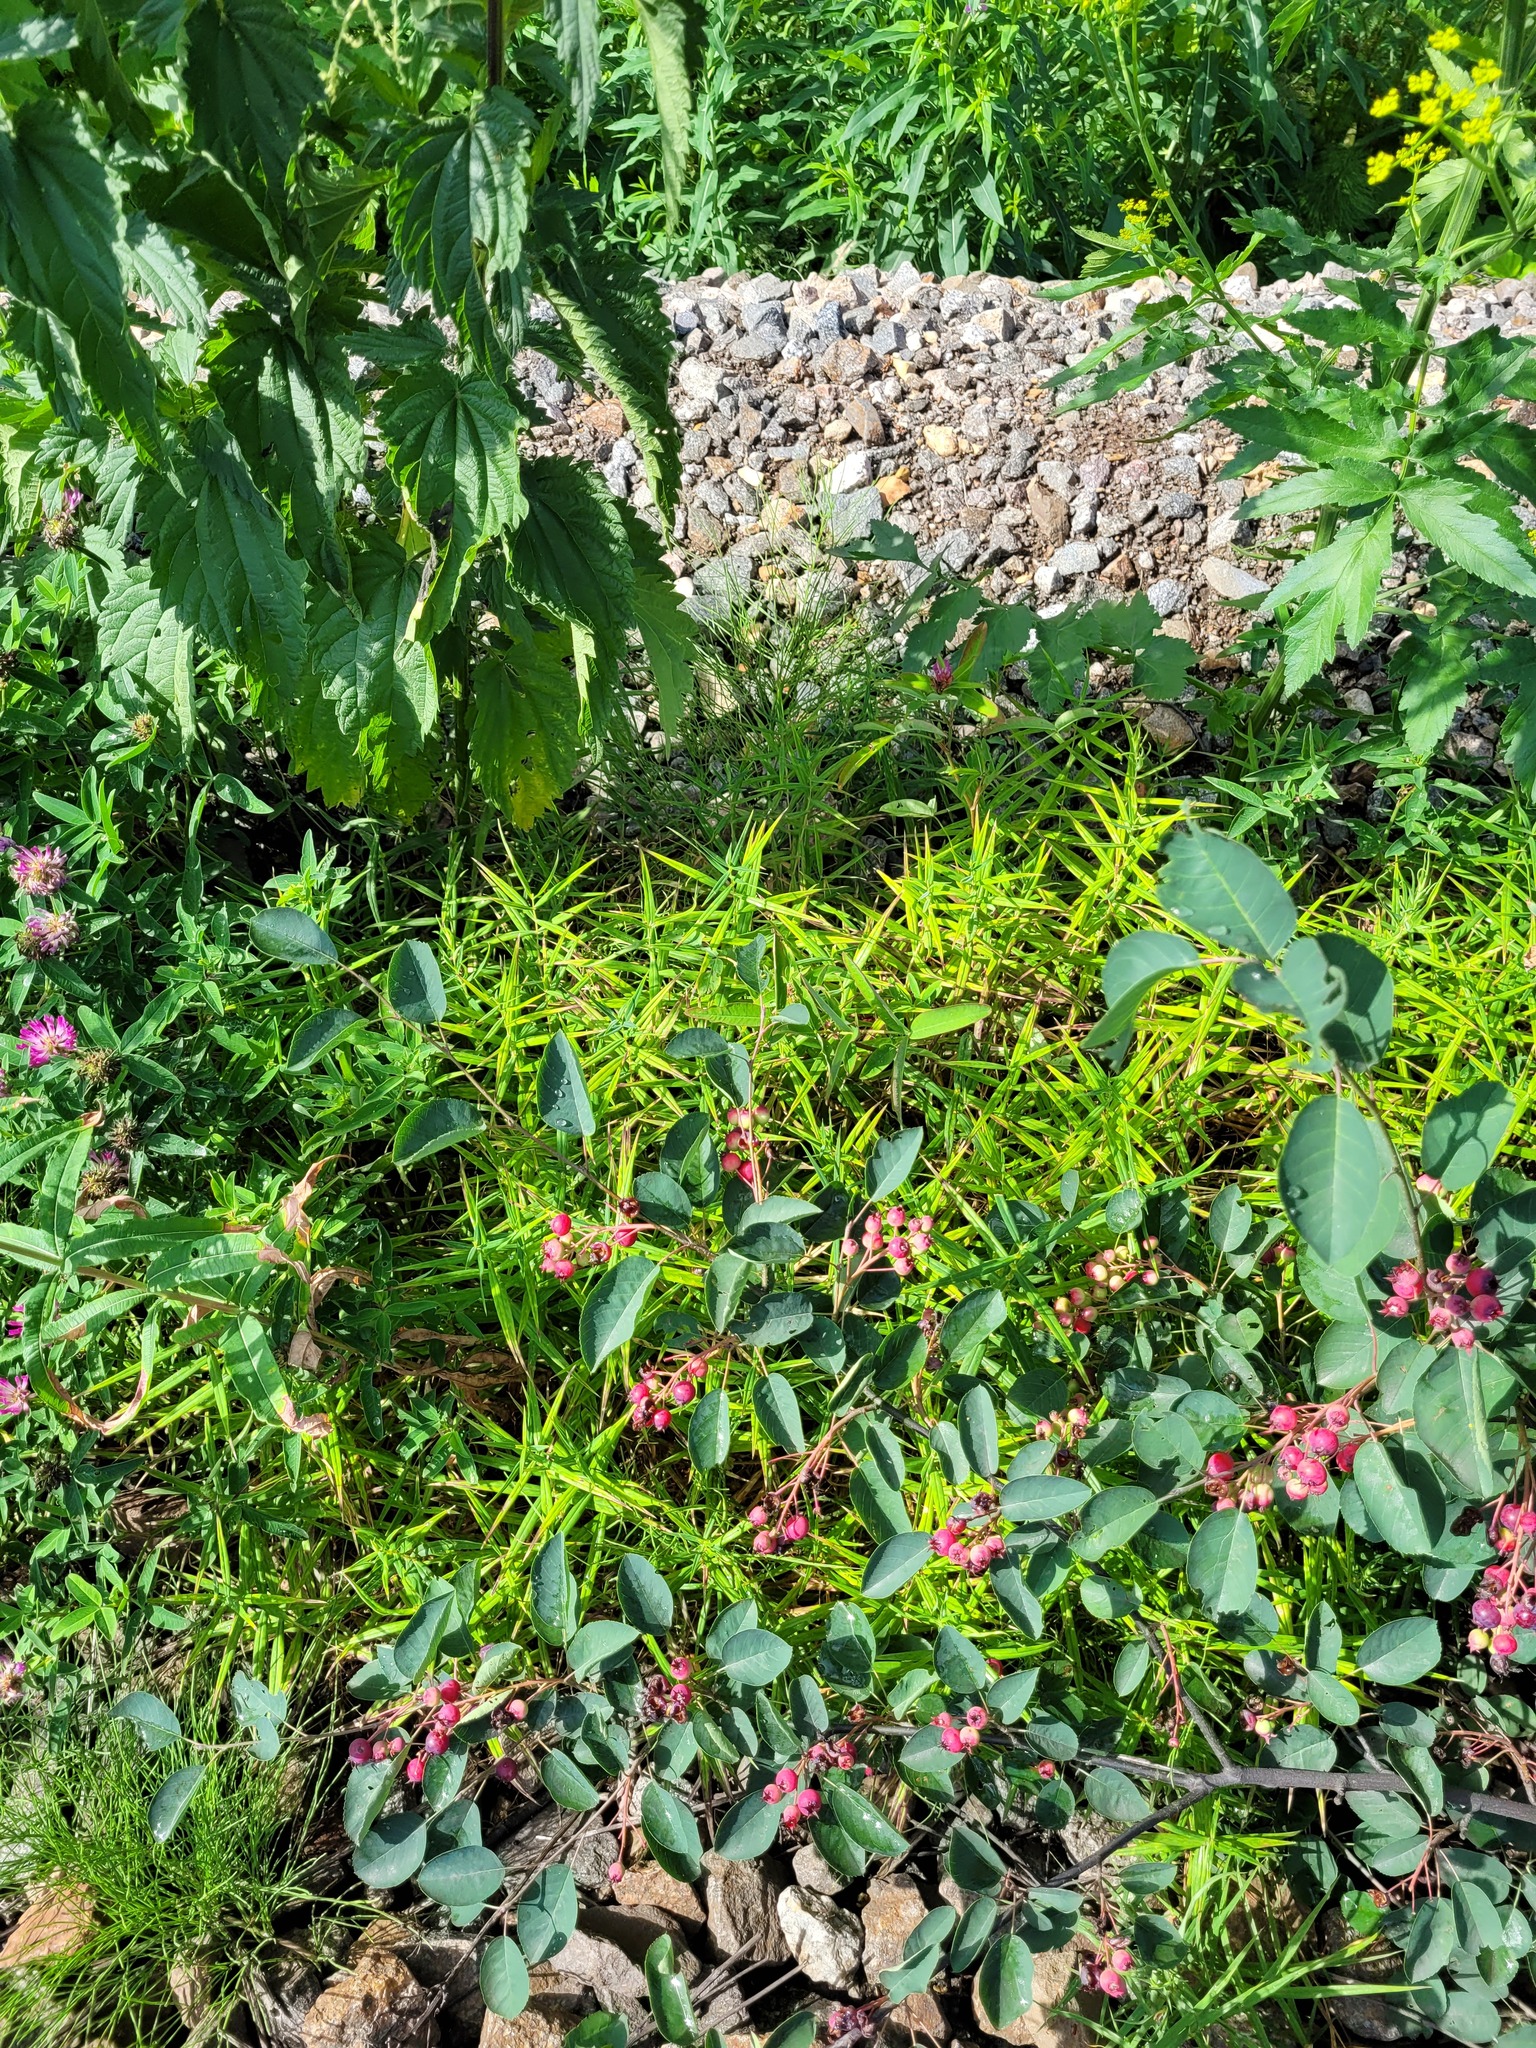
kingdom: Plantae
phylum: Tracheophyta
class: Magnoliopsida
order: Caryophyllales
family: Caryophyllaceae
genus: Rabelera
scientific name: Rabelera holostea
